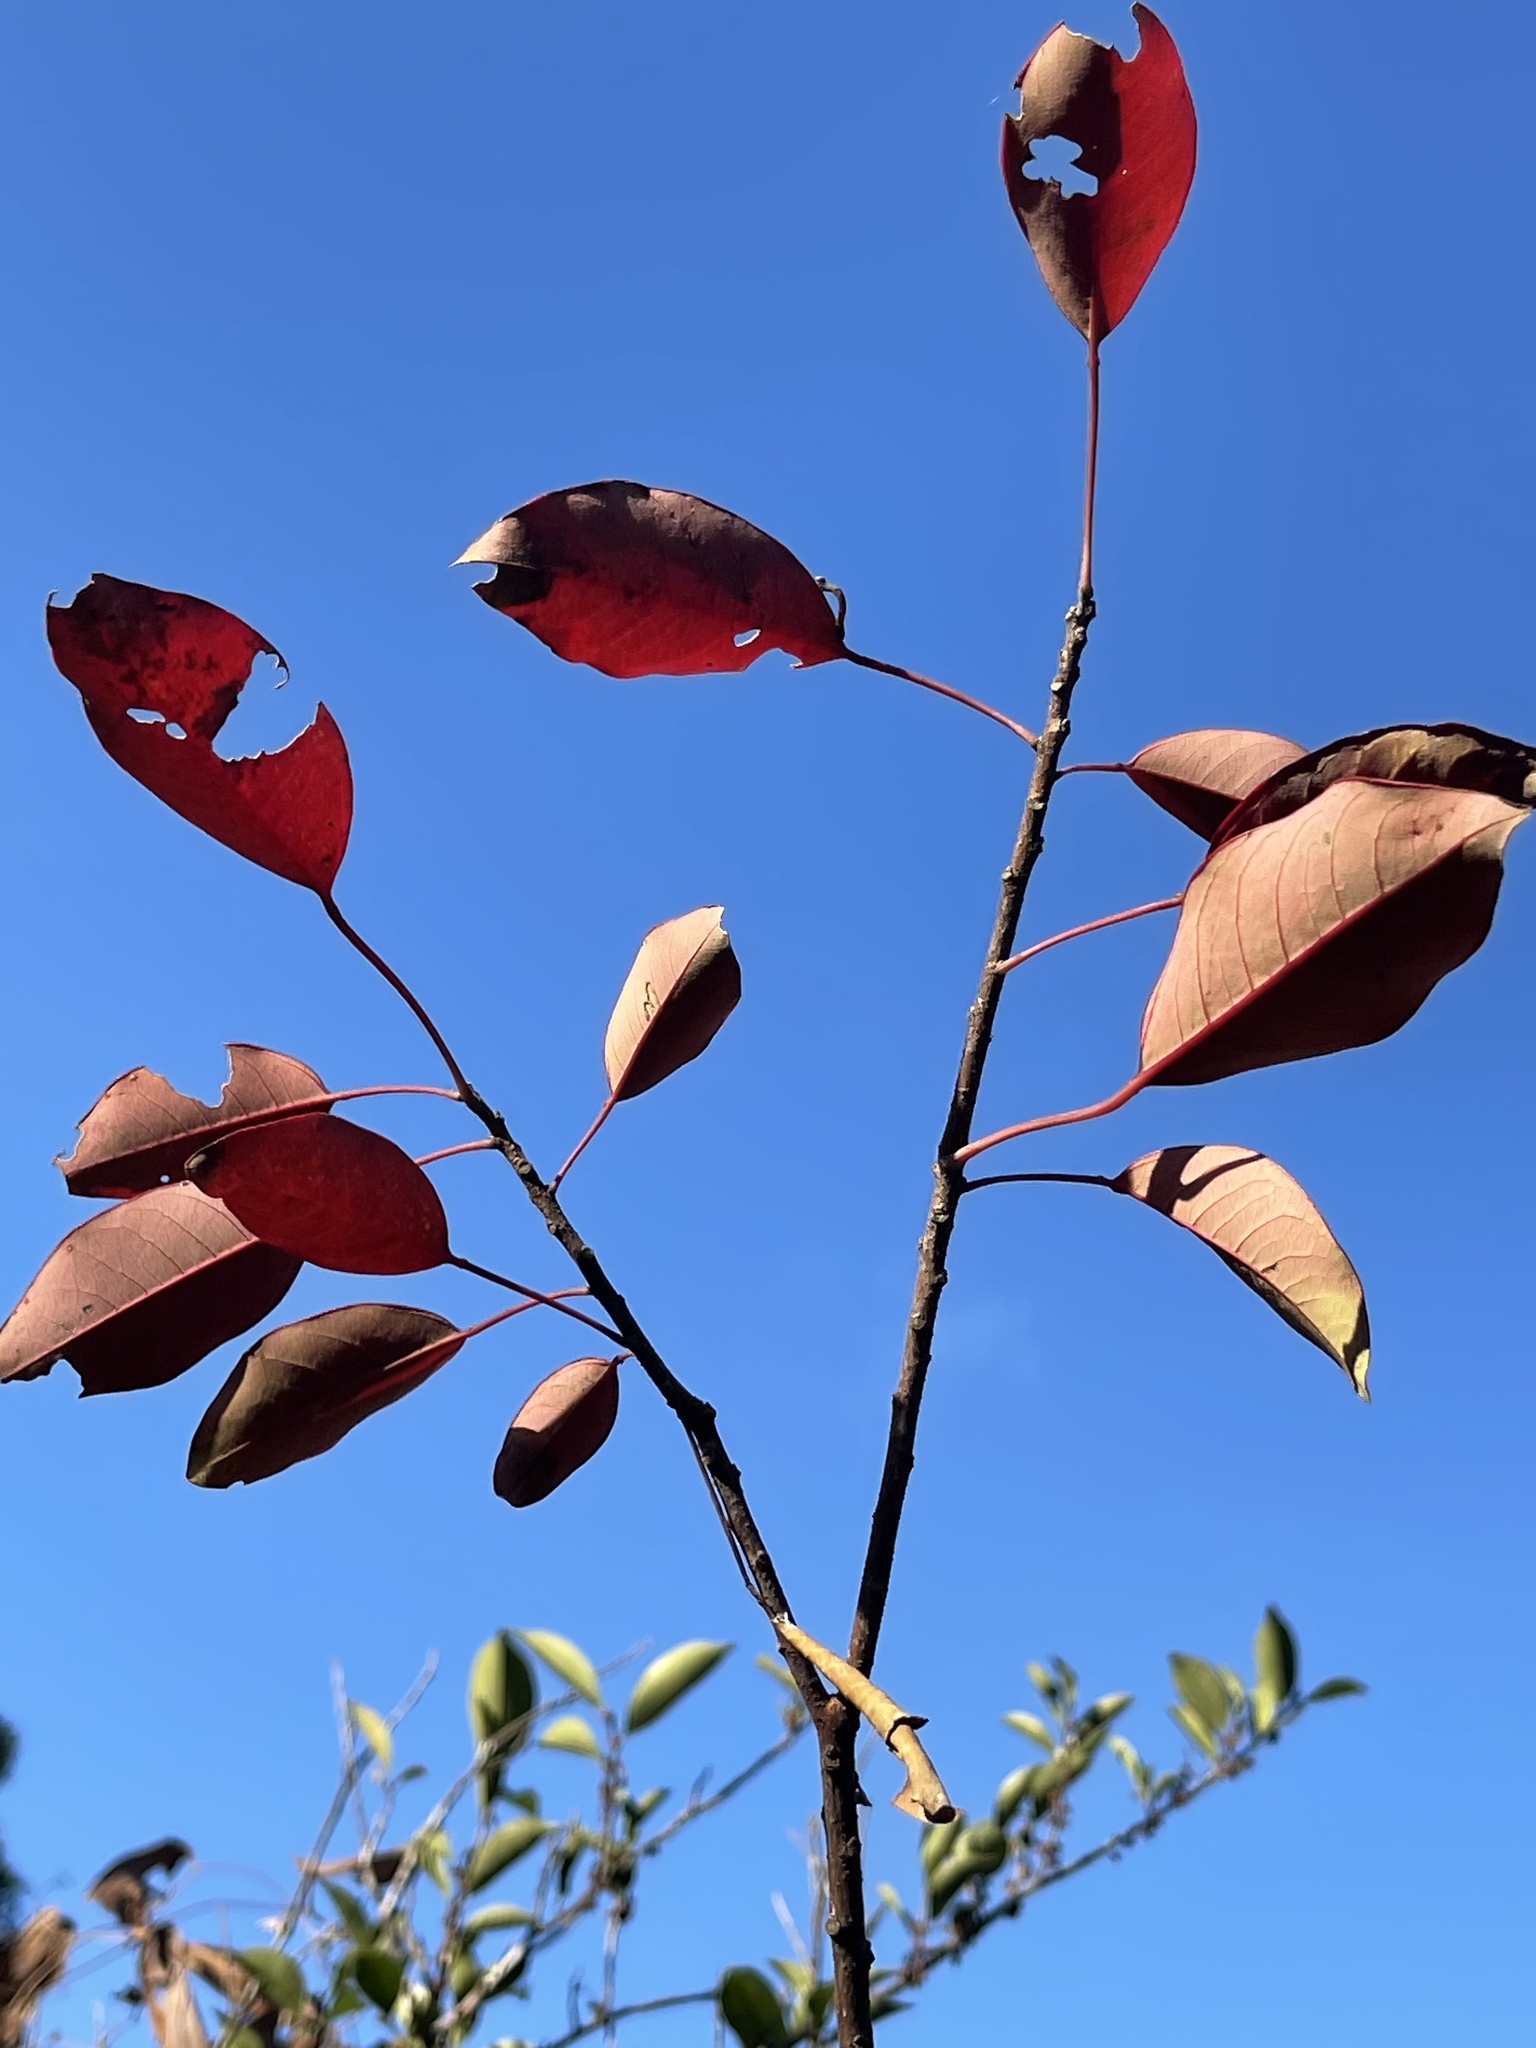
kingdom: Plantae
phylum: Tracheophyta
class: Magnoliopsida
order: Malpighiales
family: Euphorbiaceae
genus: Triadica
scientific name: Triadica cochinchinensis
